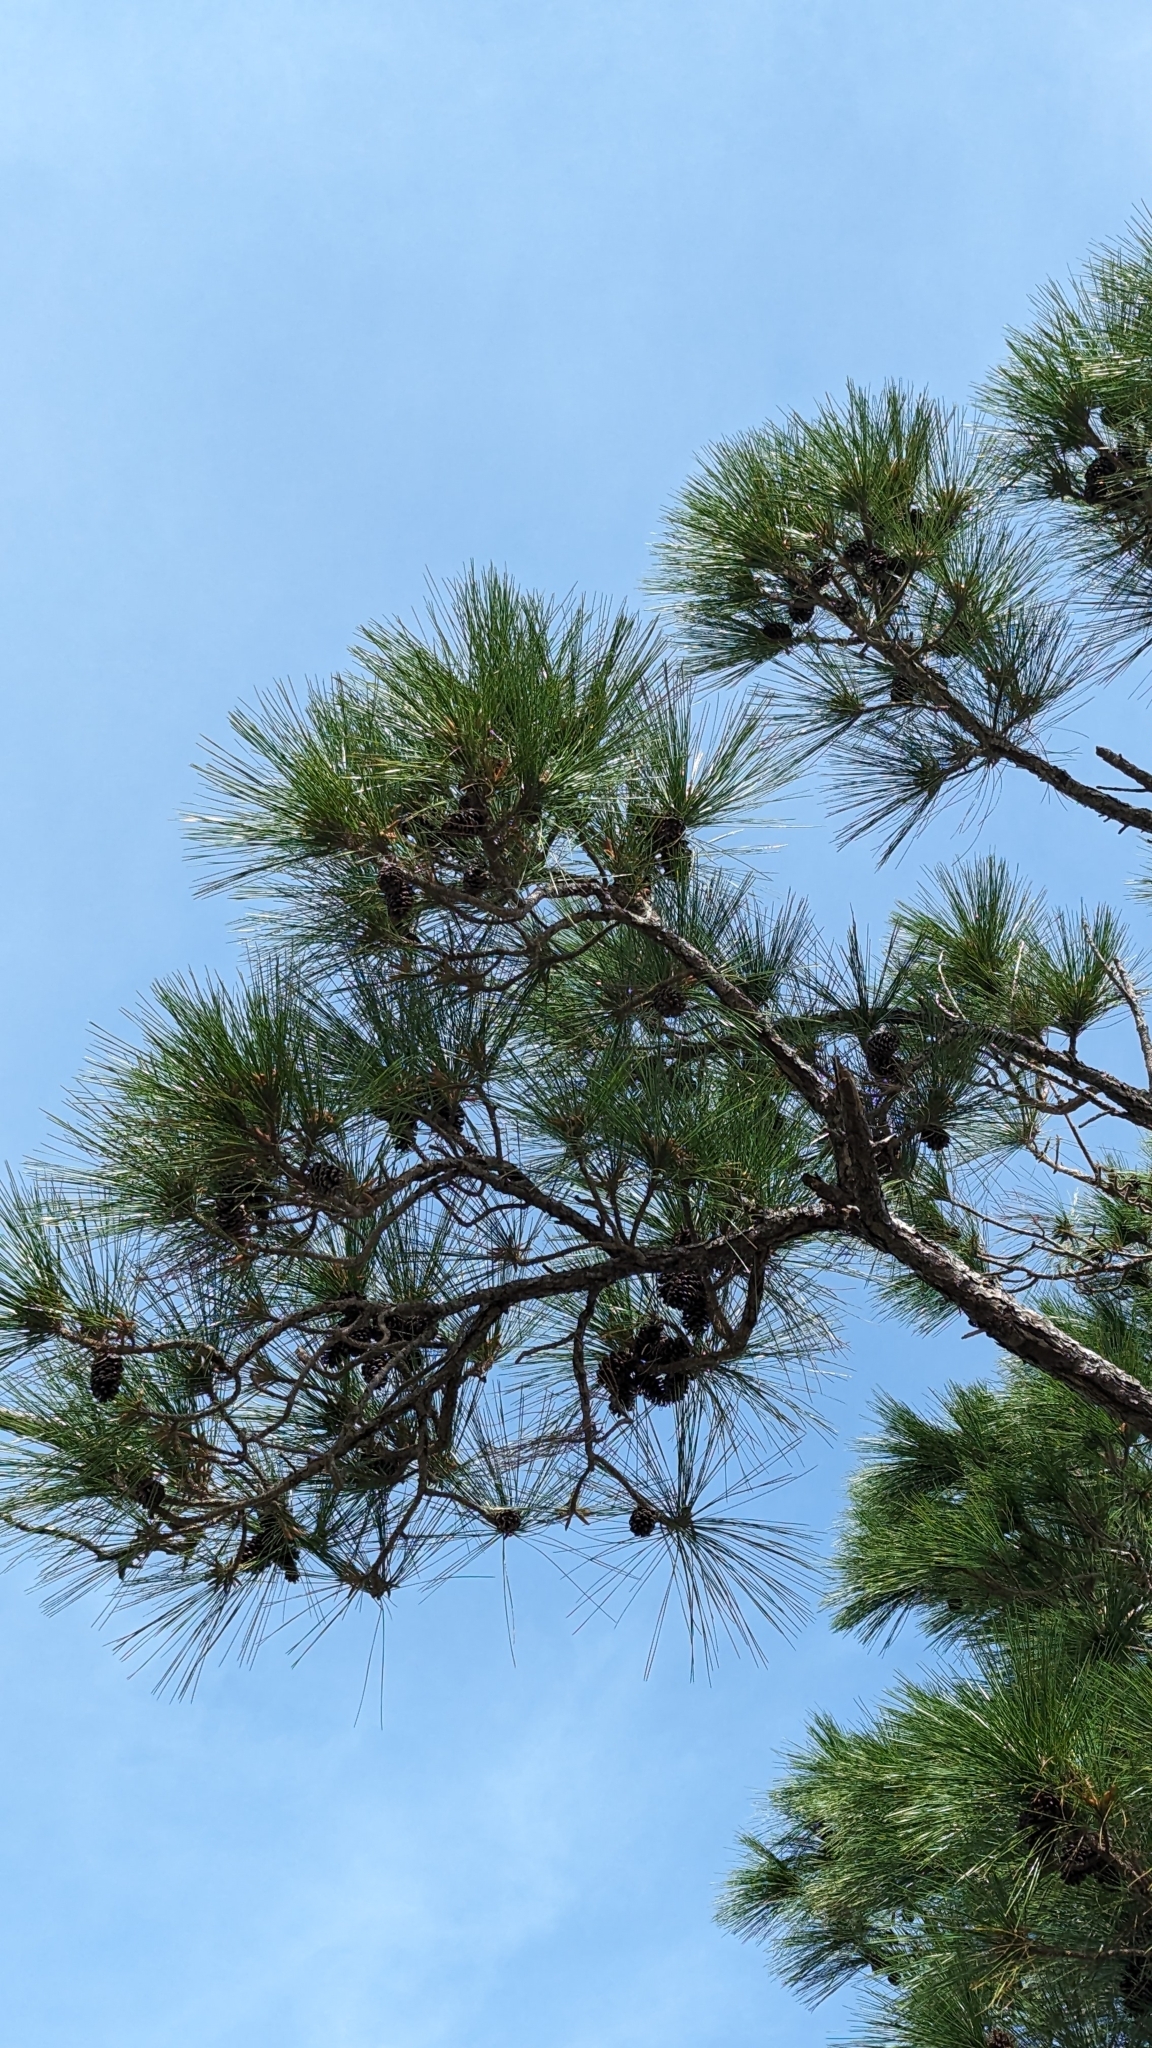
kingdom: Plantae
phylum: Tracheophyta
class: Pinopsida
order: Pinales
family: Pinaceae
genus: Pinus
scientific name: Pinus elliottii
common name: Slash pine
